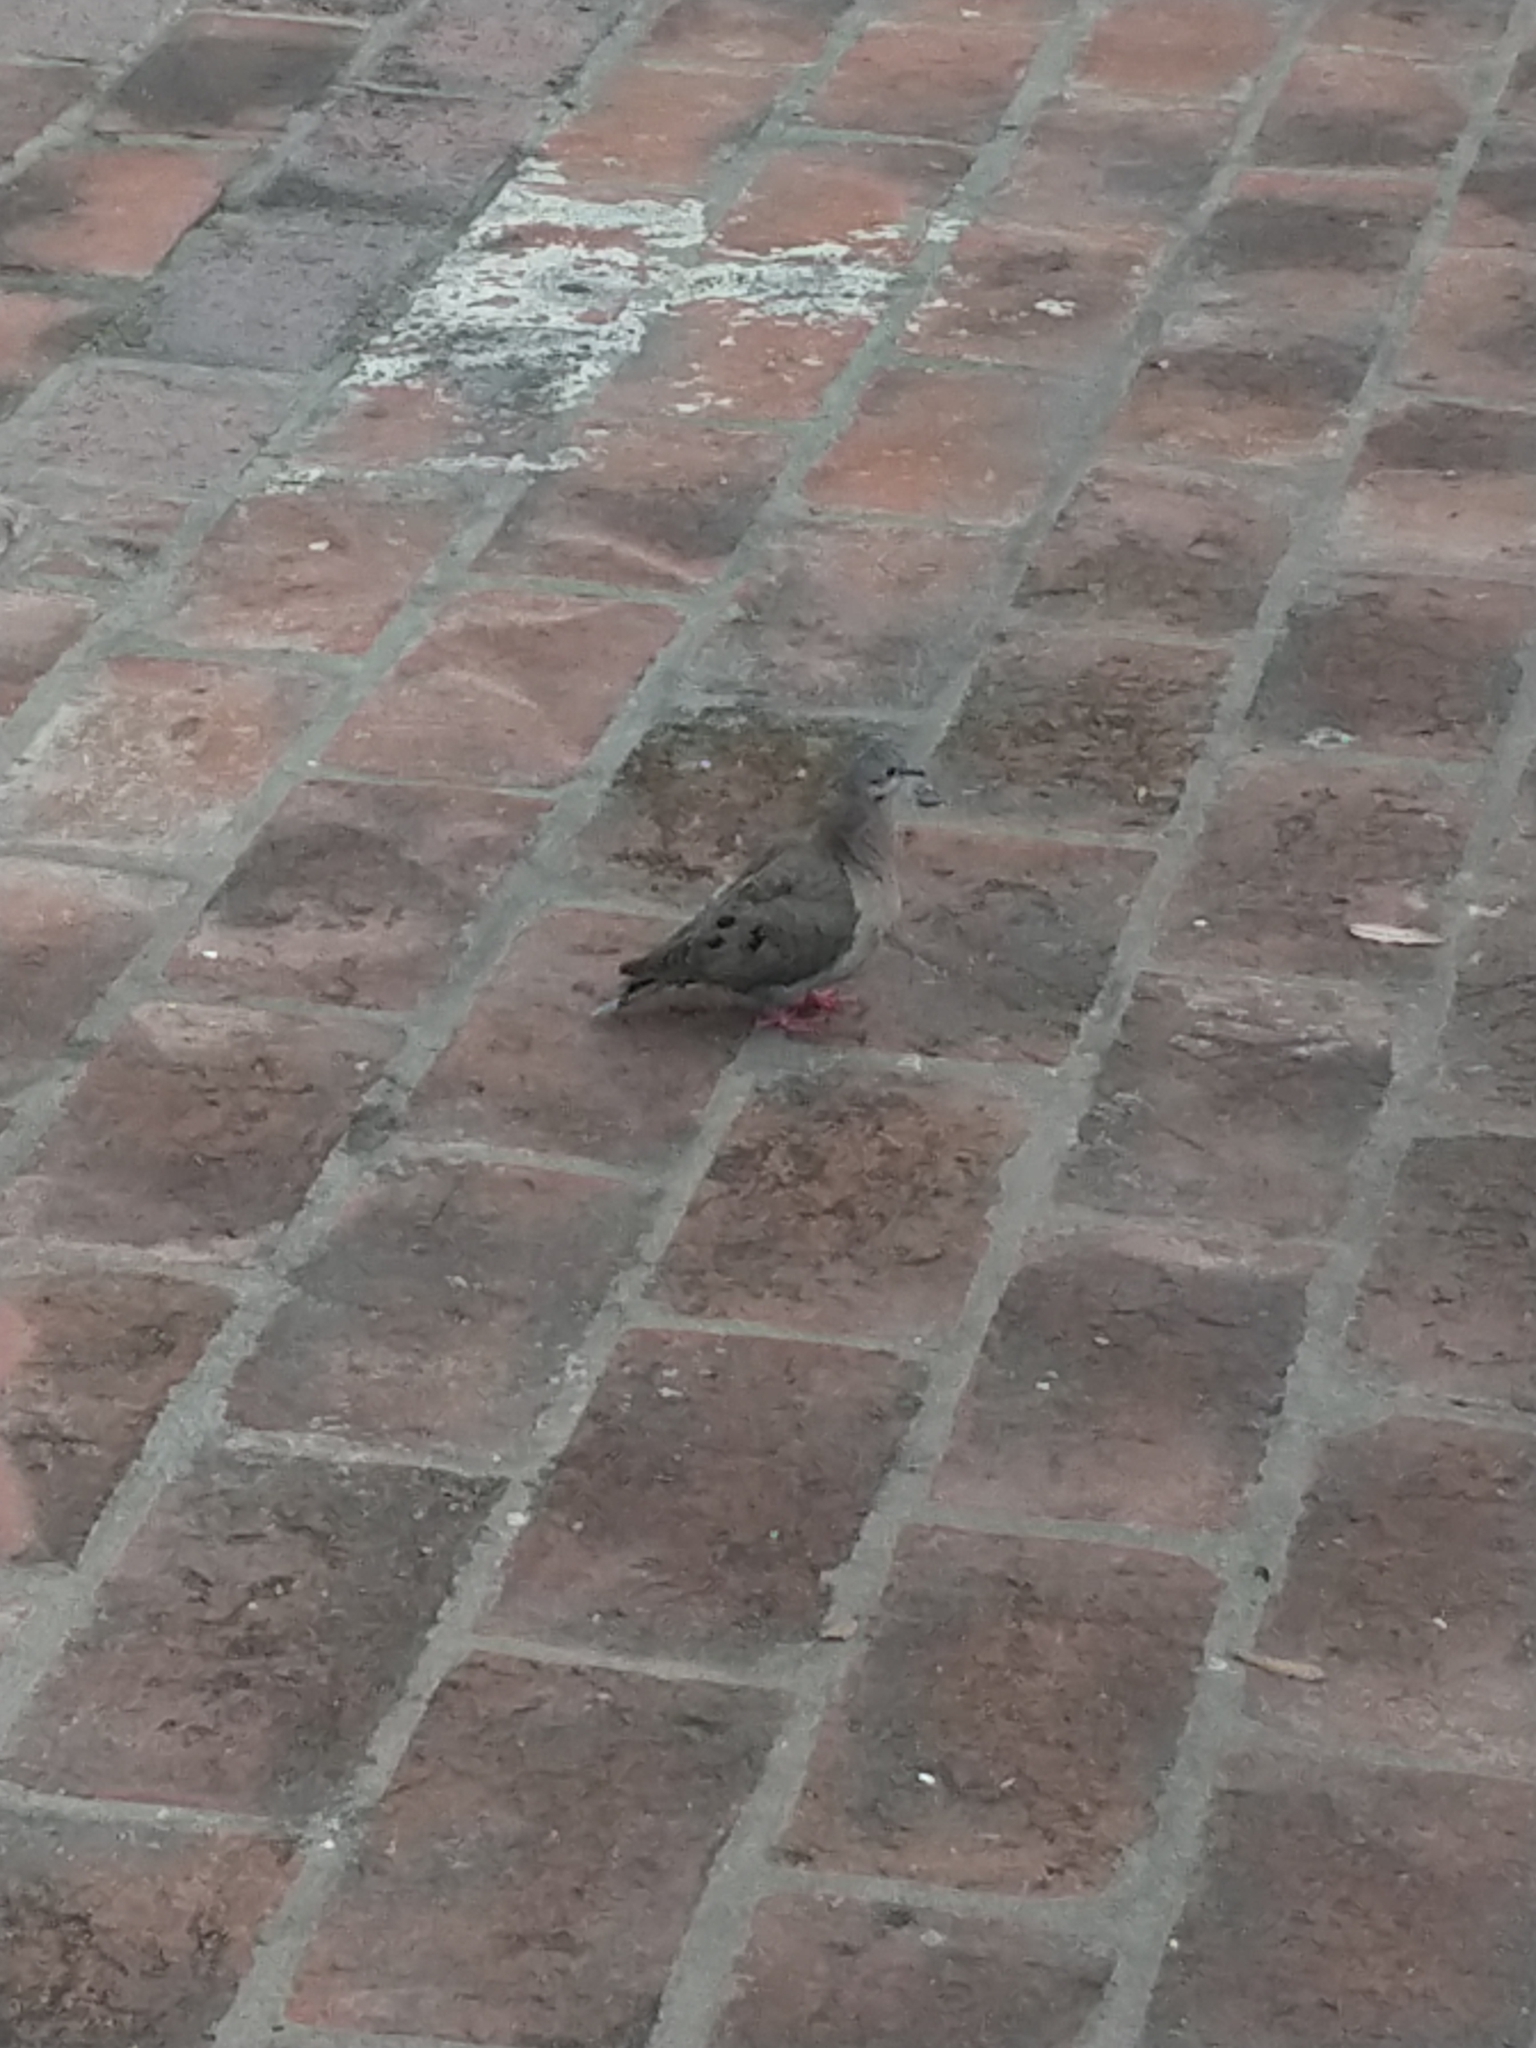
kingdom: Animalia
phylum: Chordata
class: Aves
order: Columbiformes
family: Columbidae
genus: Zenaida
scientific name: Zenaida auriculata
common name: Eared dove
